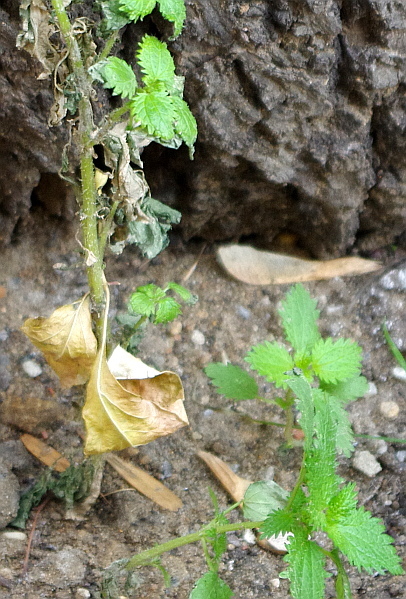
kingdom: Plantae
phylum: Tracheophyta
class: Magnoliopsida
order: Rosales
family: Urticaceae
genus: Urtica
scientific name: Urtica dioica
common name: Common nettle
